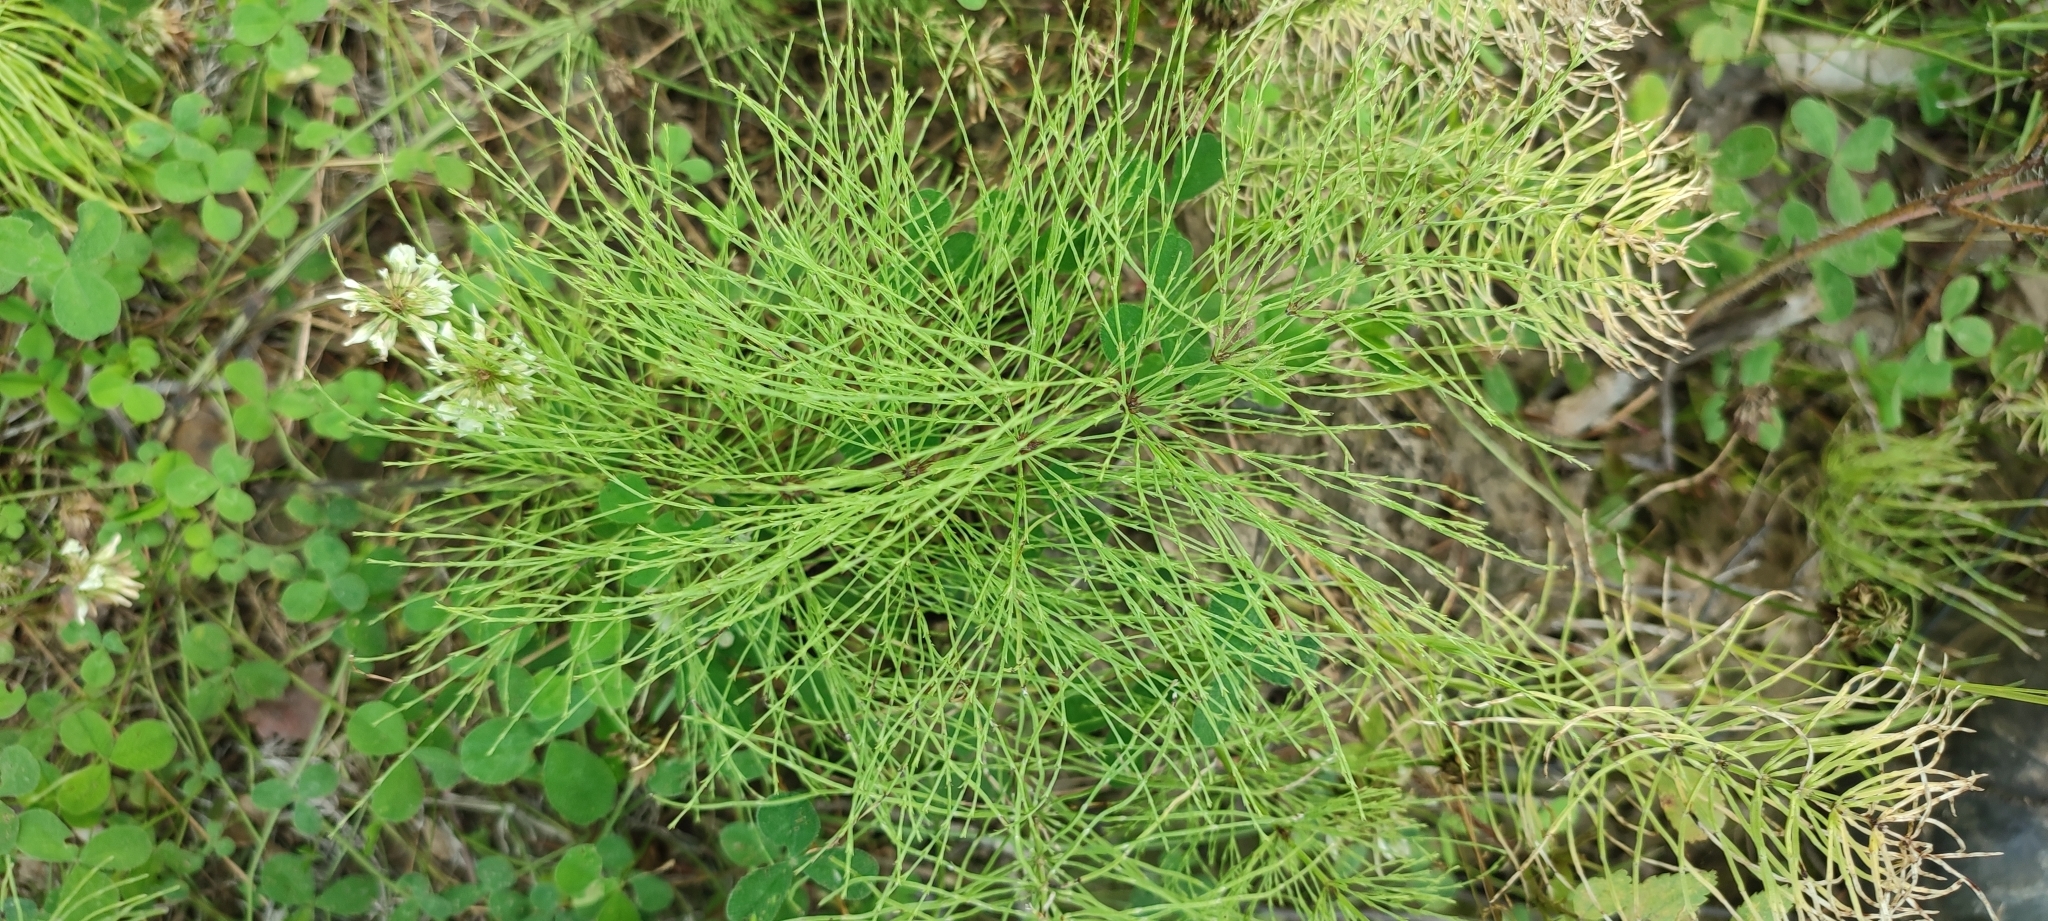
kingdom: Plantae
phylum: Tracheophyta
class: Polypodiopsida
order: Equisetales
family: Equisetaceae
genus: Equisetum
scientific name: Equisetum sylvaticum
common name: Wood horsetail
